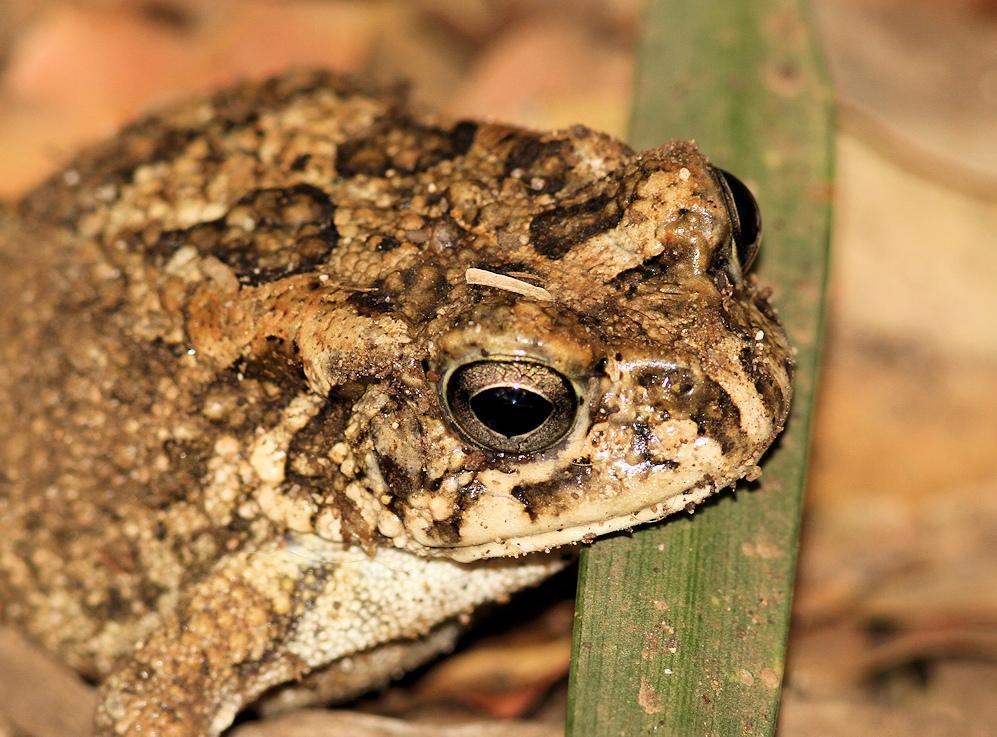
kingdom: Animalia
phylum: Chordata
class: Amphibia
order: Anura
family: Bufonidae
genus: Sclerophrys
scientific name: Sclerophrys gutturalis
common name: African common toad
